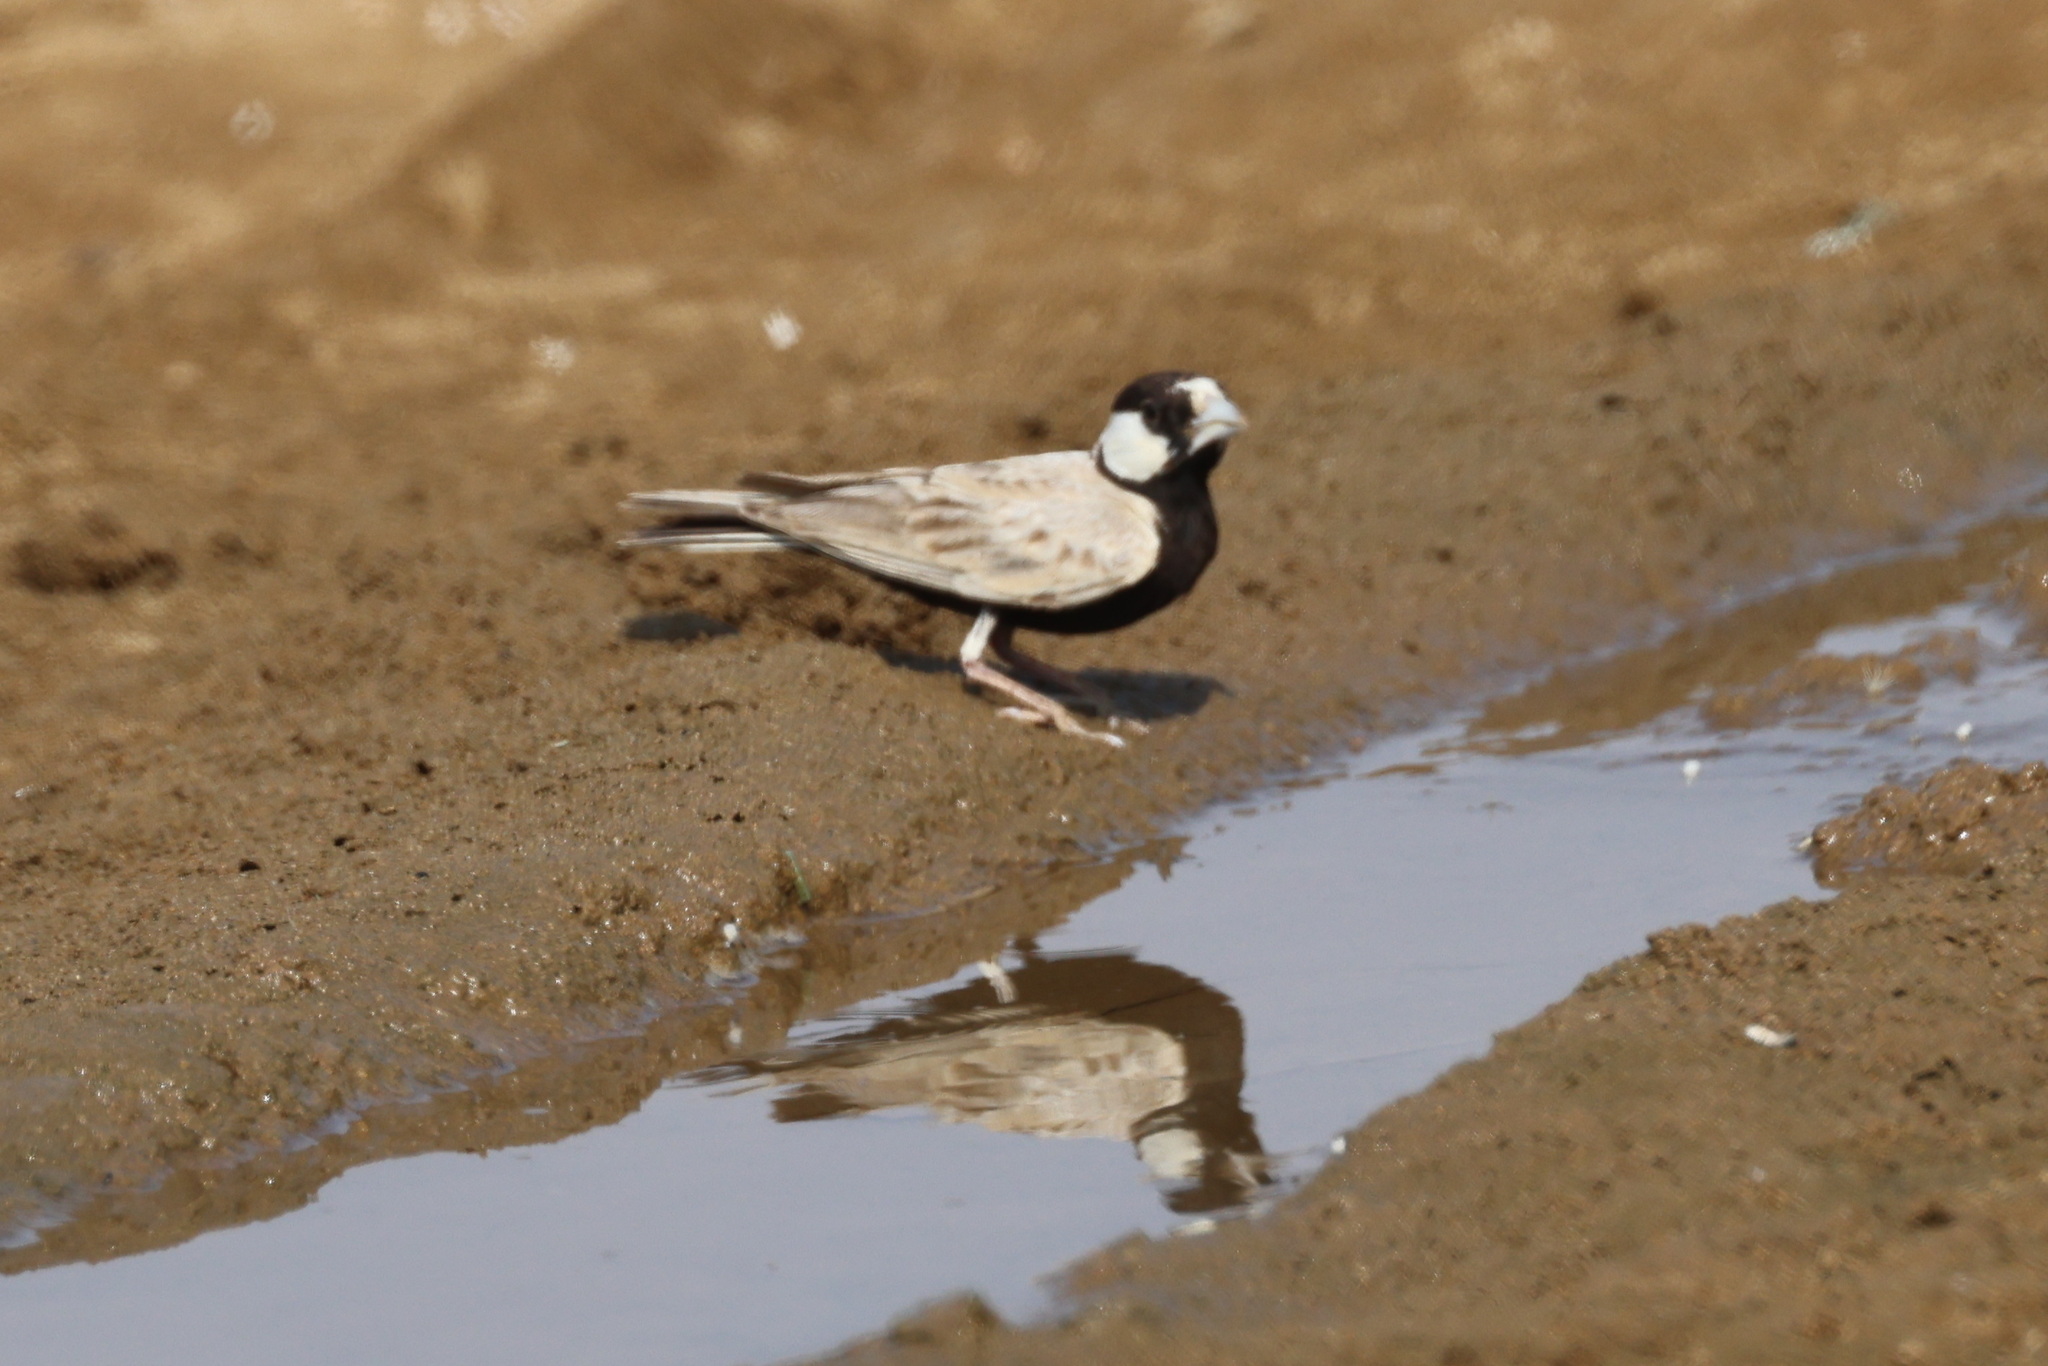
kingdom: Animalia
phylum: Chordata
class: Aves
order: Passeriformes
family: Alaudidae
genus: Eremopterix
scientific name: Eremopterix nigriceps
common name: Black-crowned sparrow-lark
